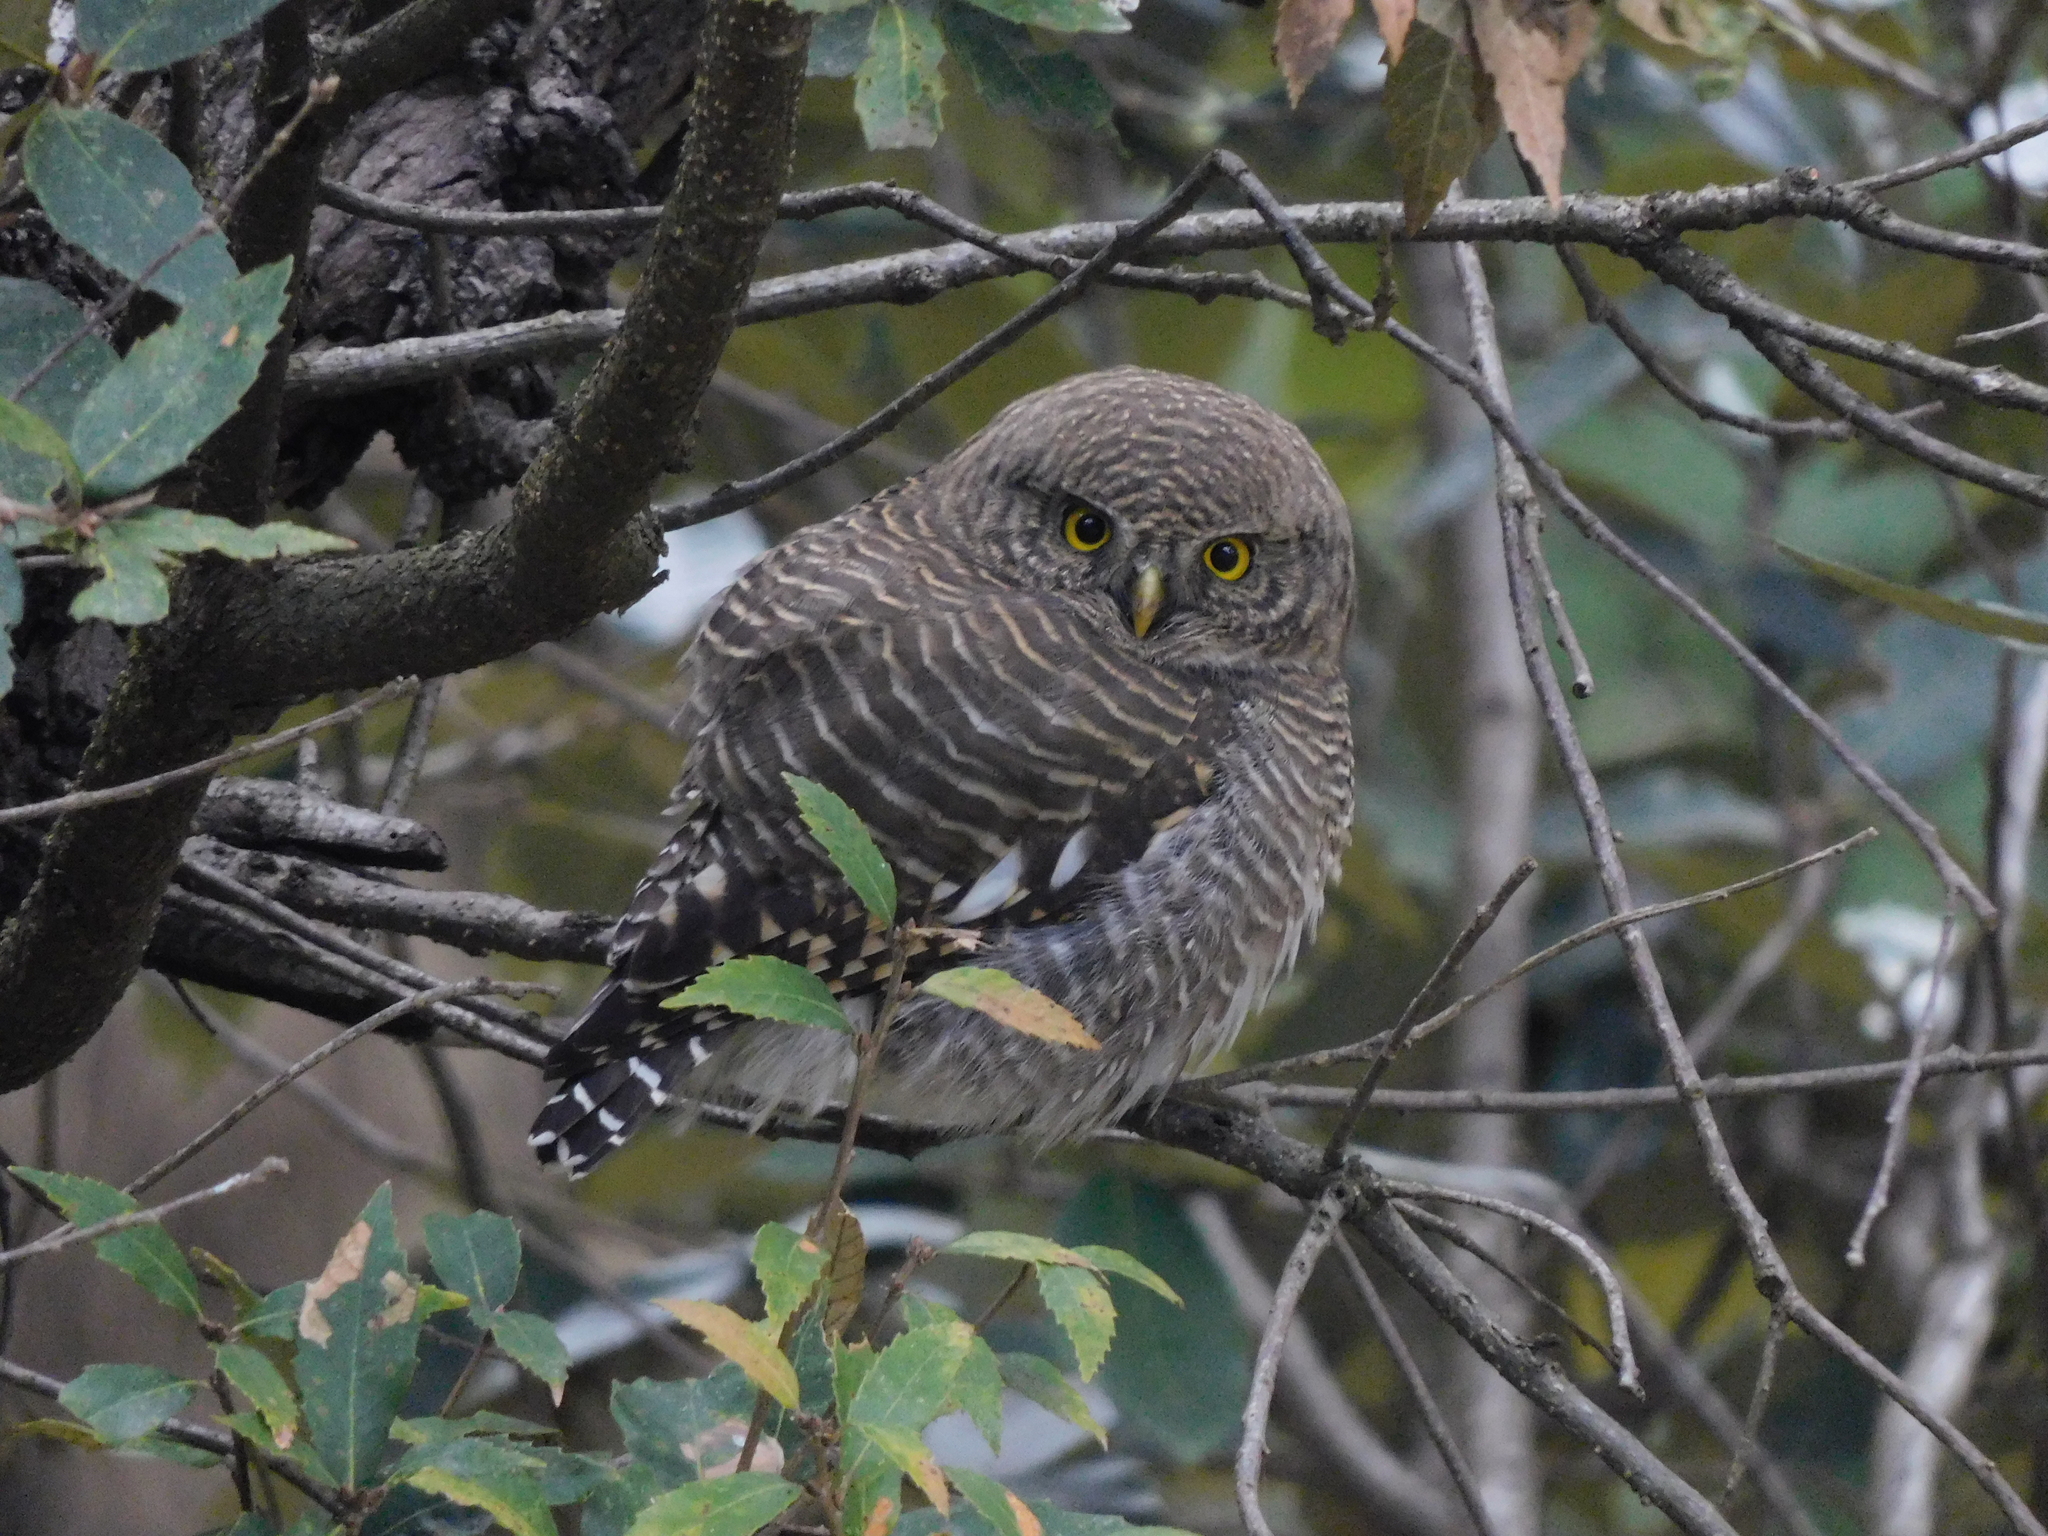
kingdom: Animalia
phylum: Chordata
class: Aves
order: Strigiformes
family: Strigidae
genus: Glaucidium
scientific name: Glaucidium cuculoides
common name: Asian barred owlet
